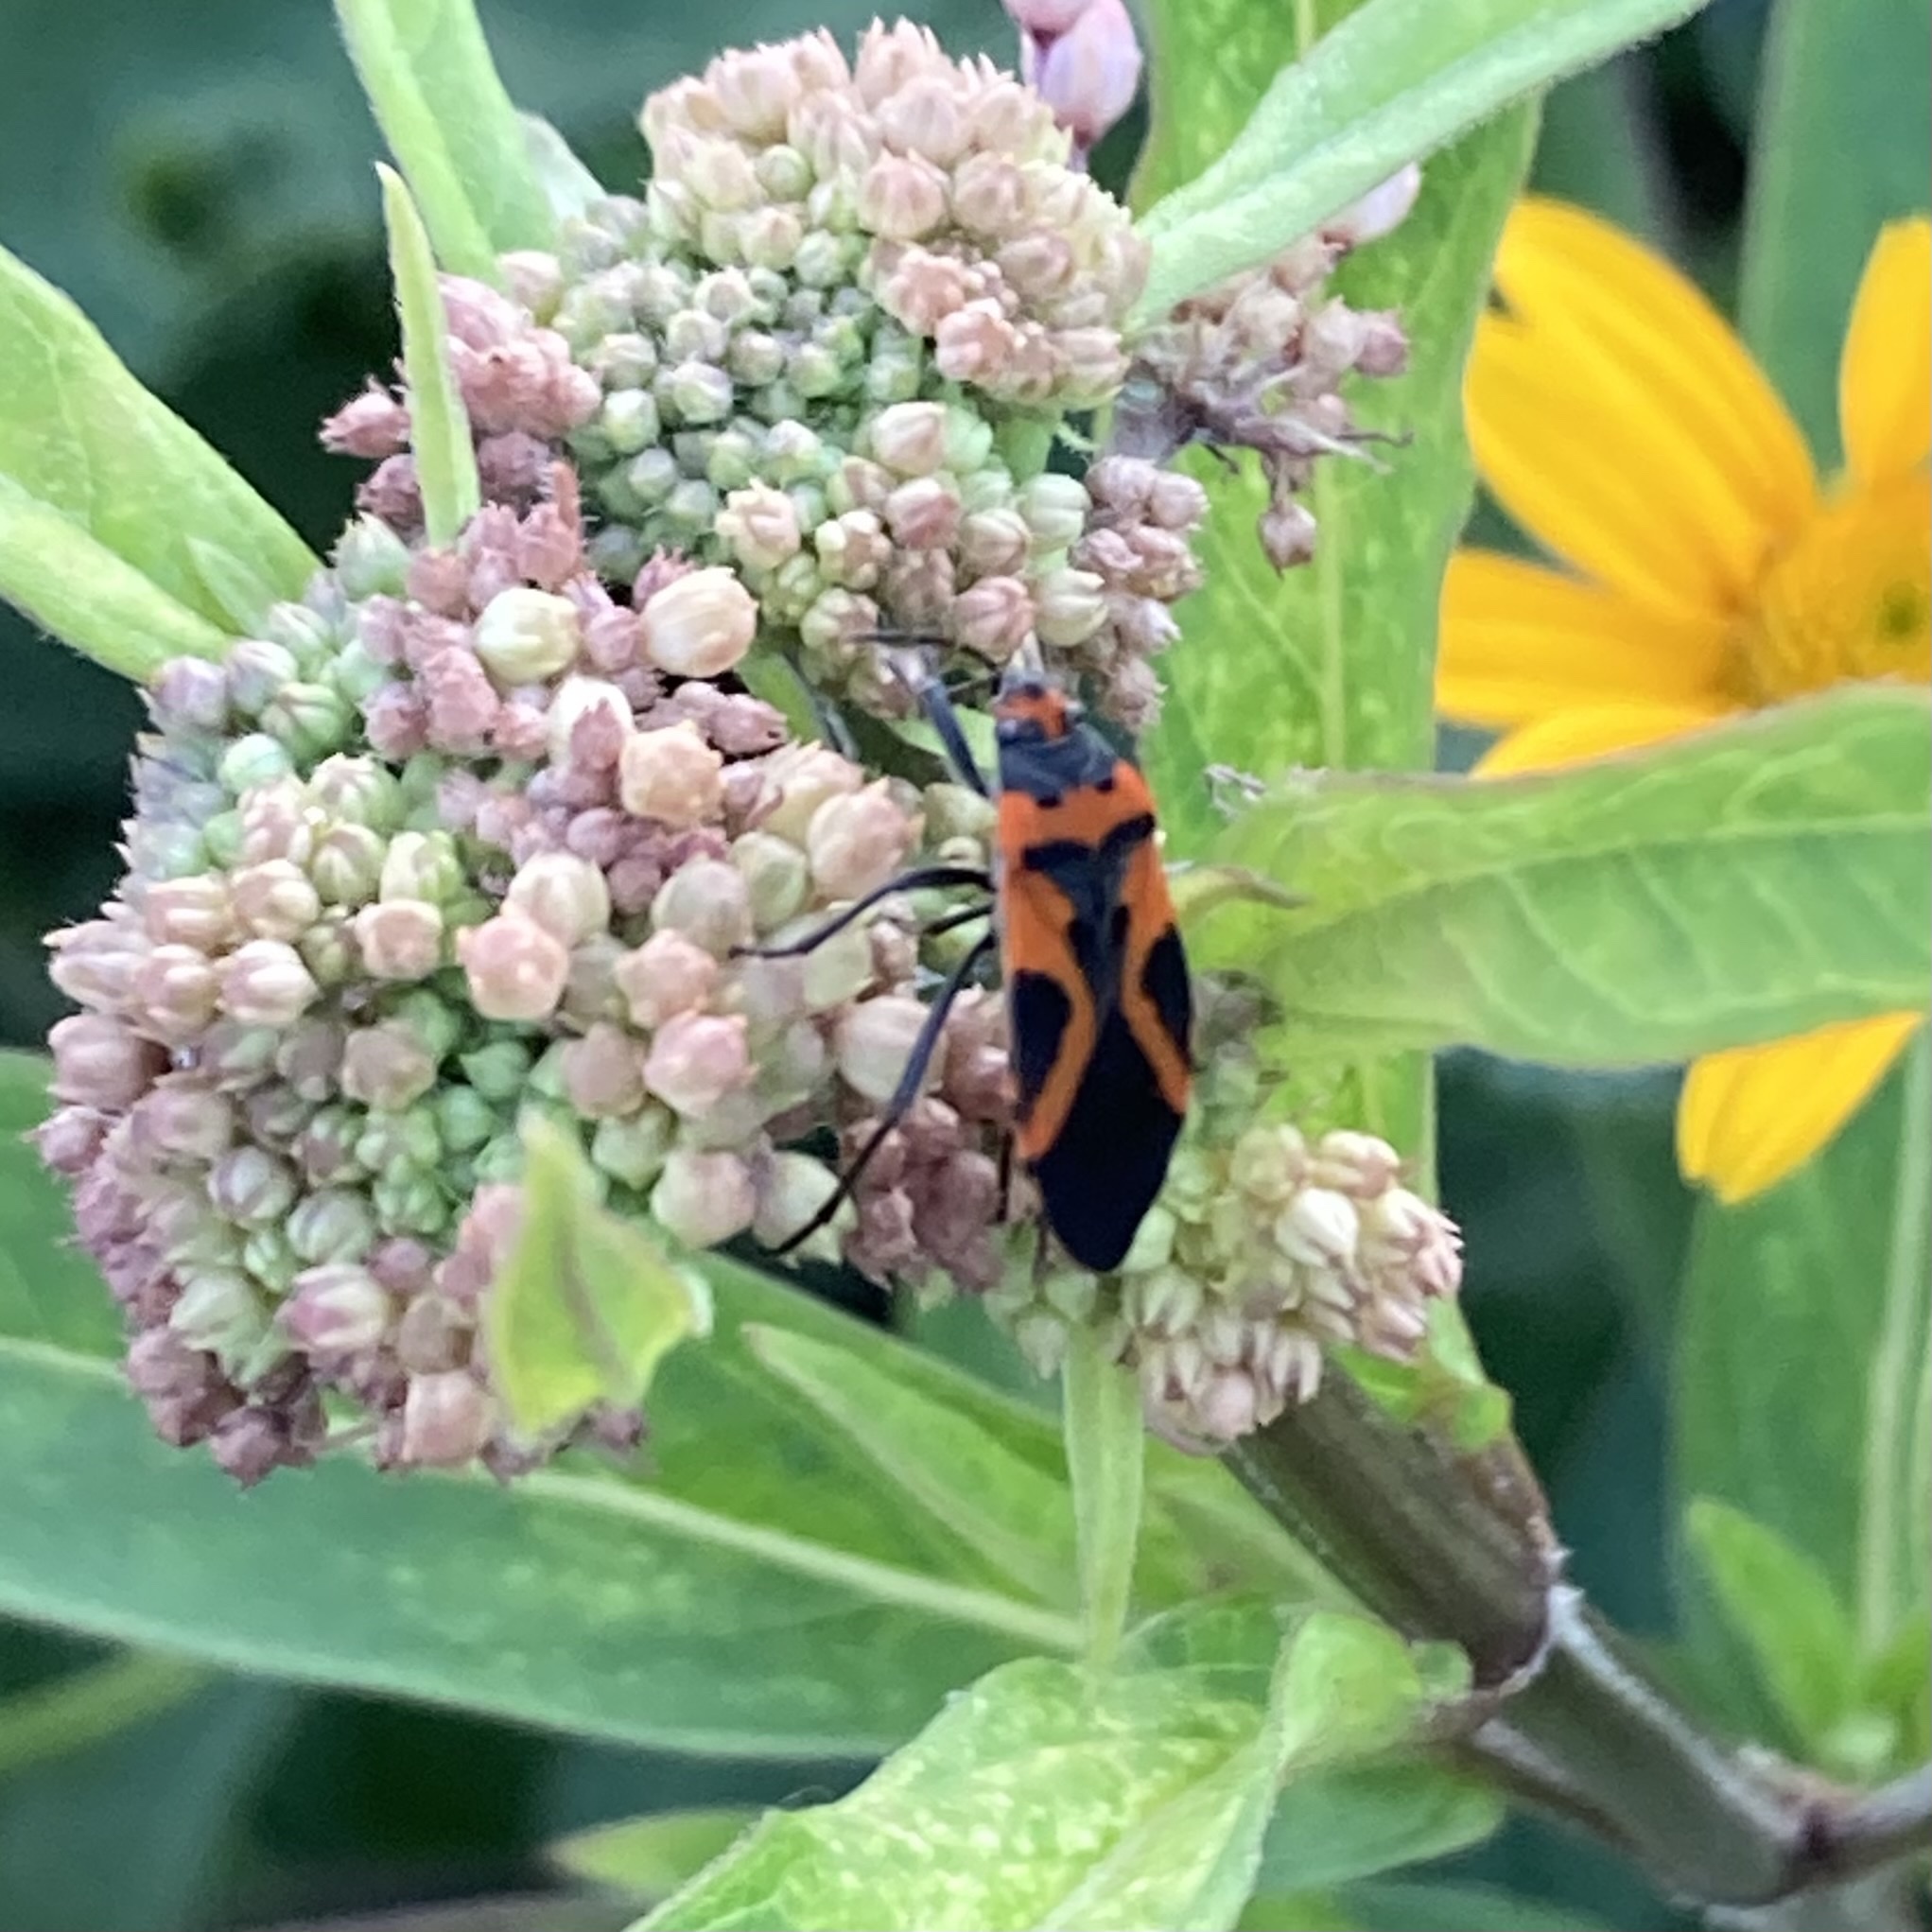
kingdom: Animalia
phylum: Arthropoda
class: Insecta
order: Hemiptera
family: Lygaeidae
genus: Lygaeus
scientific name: Lygaeus turcicus
